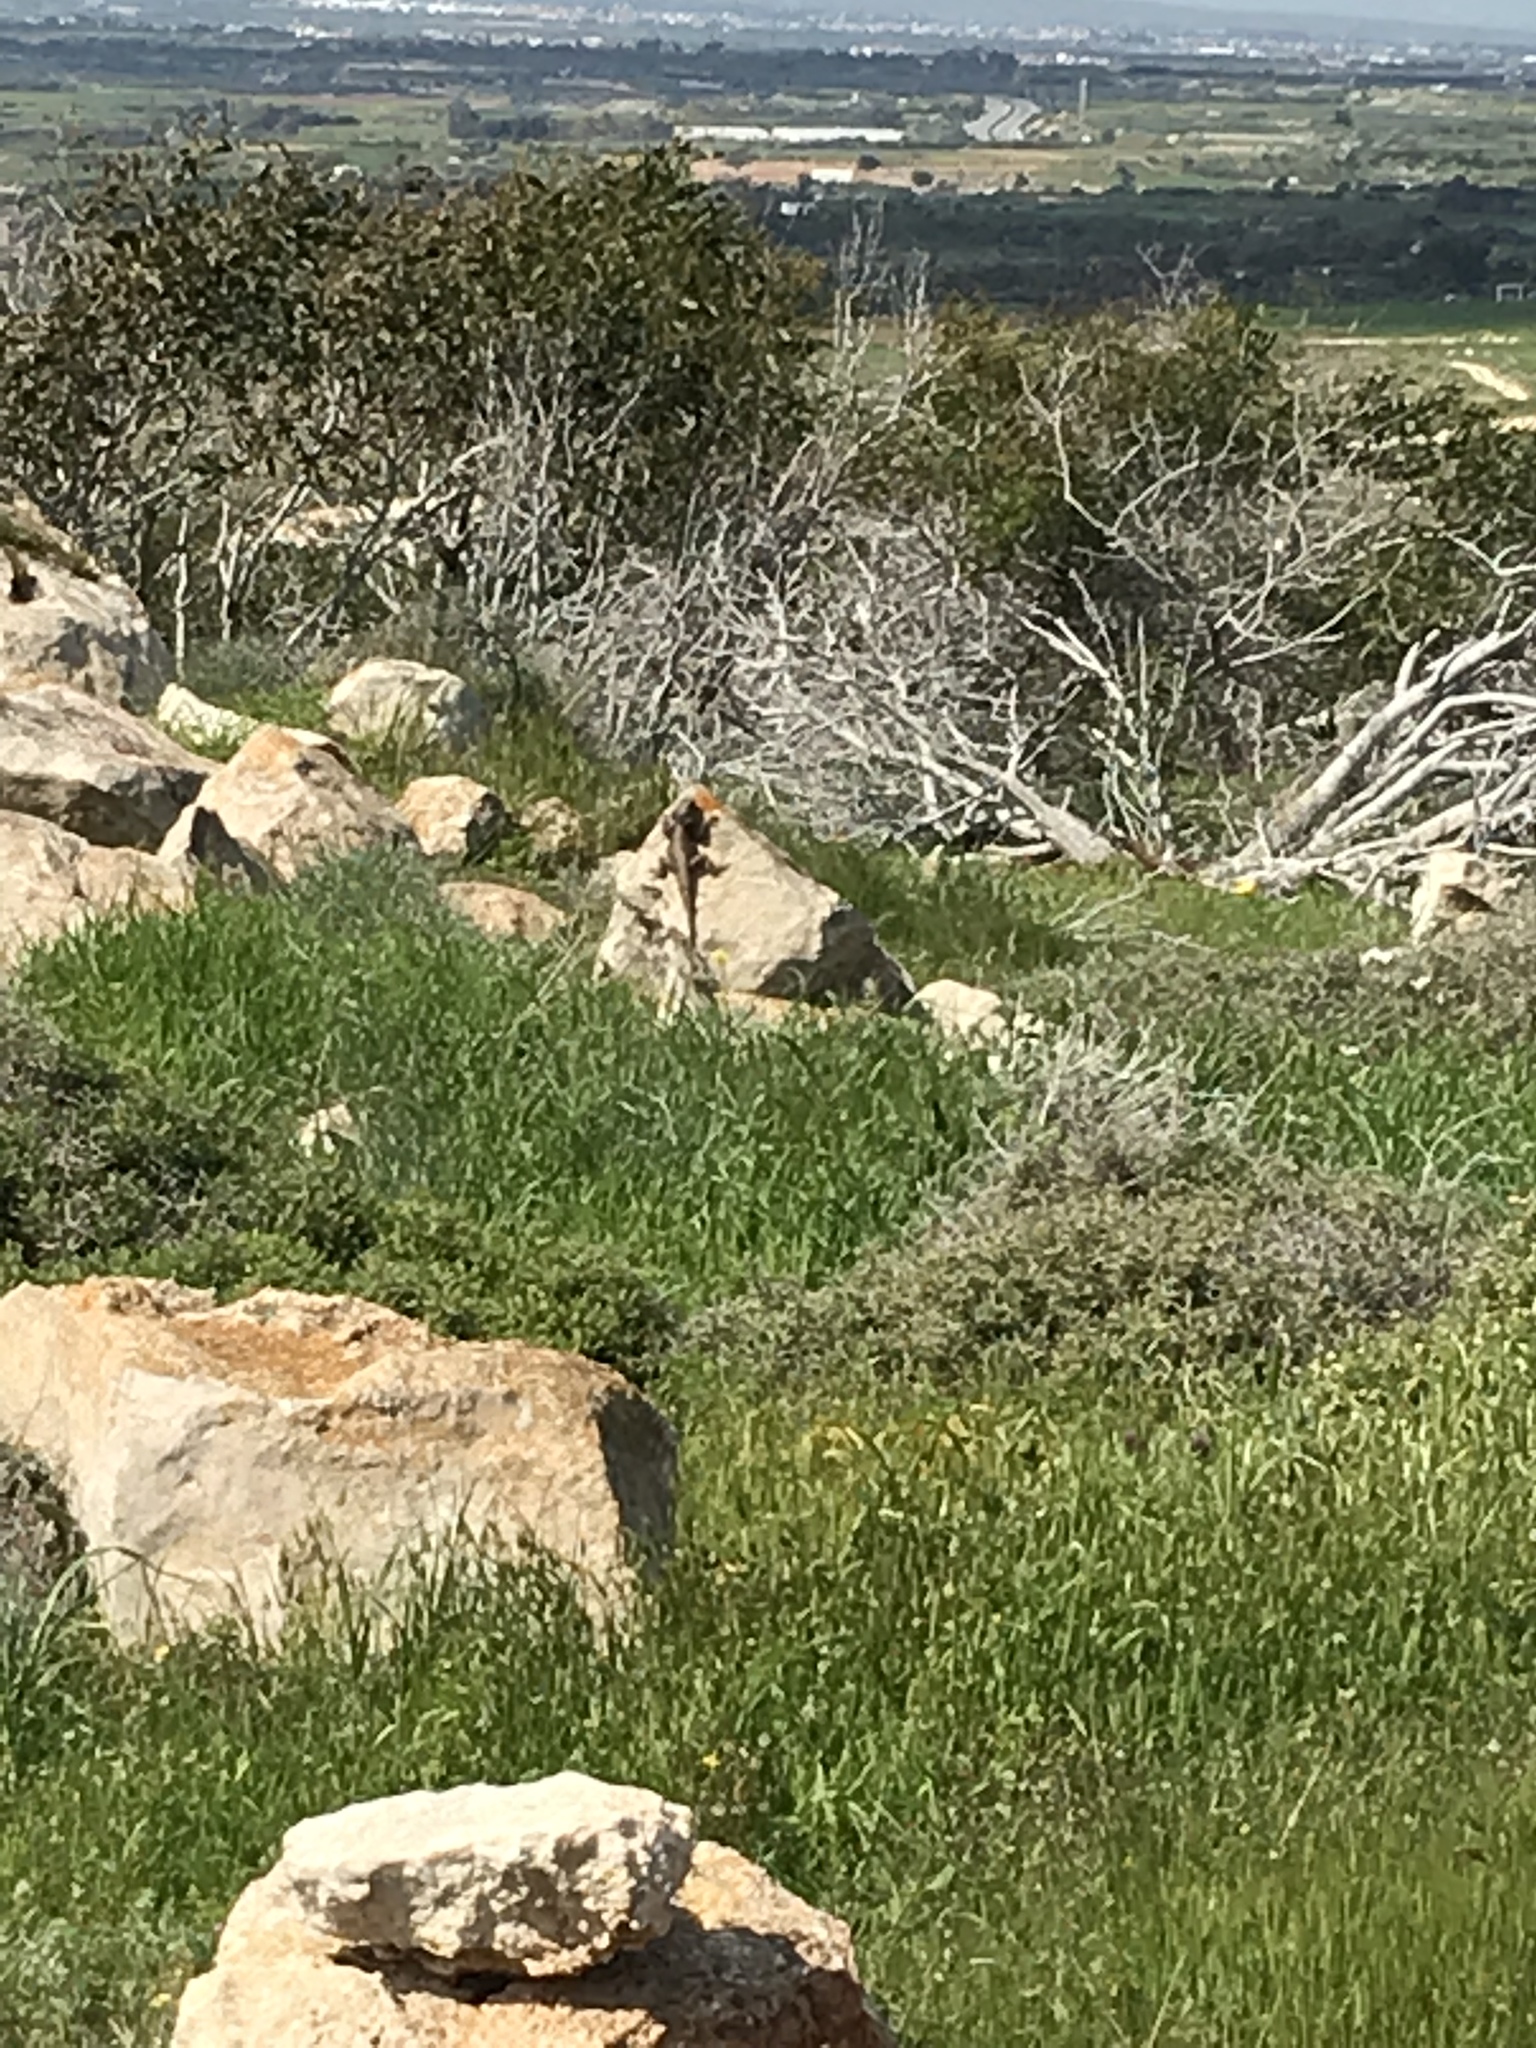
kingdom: Animalia
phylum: Chordata
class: Squamata
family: Agamidae
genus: Laudakia
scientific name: Laudakia
